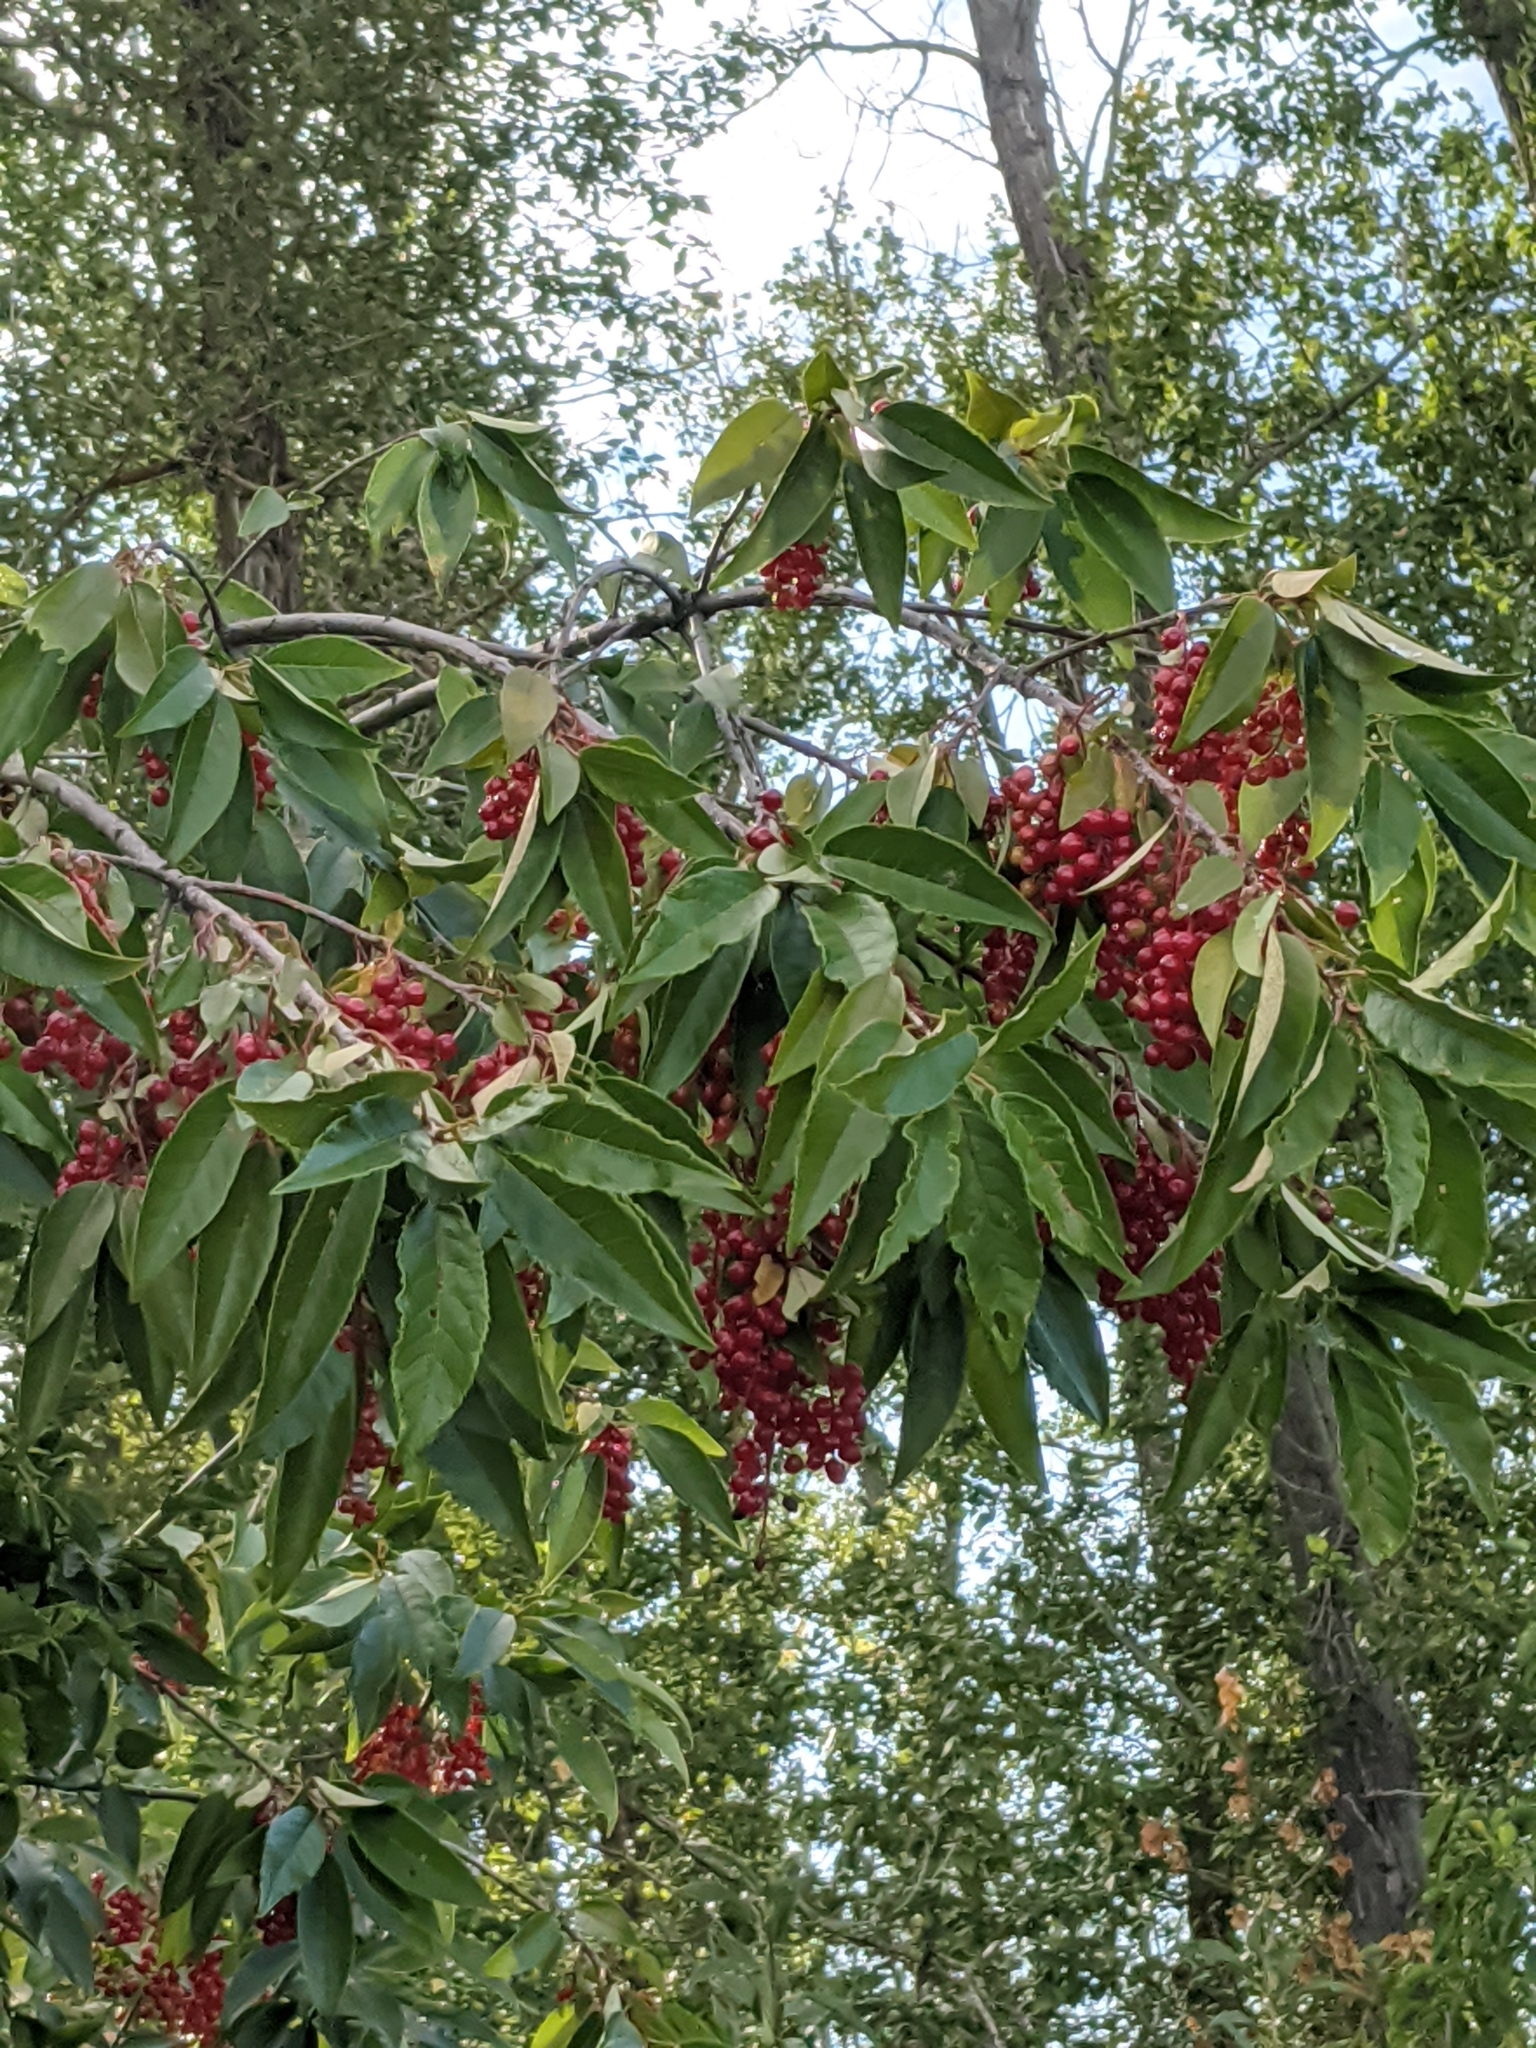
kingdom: Plantae
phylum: Tracheophyta
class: Magnoliopsida
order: Rosales
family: Rosaceae
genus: Prunus
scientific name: Prunus virginiana
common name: Chokecherry
